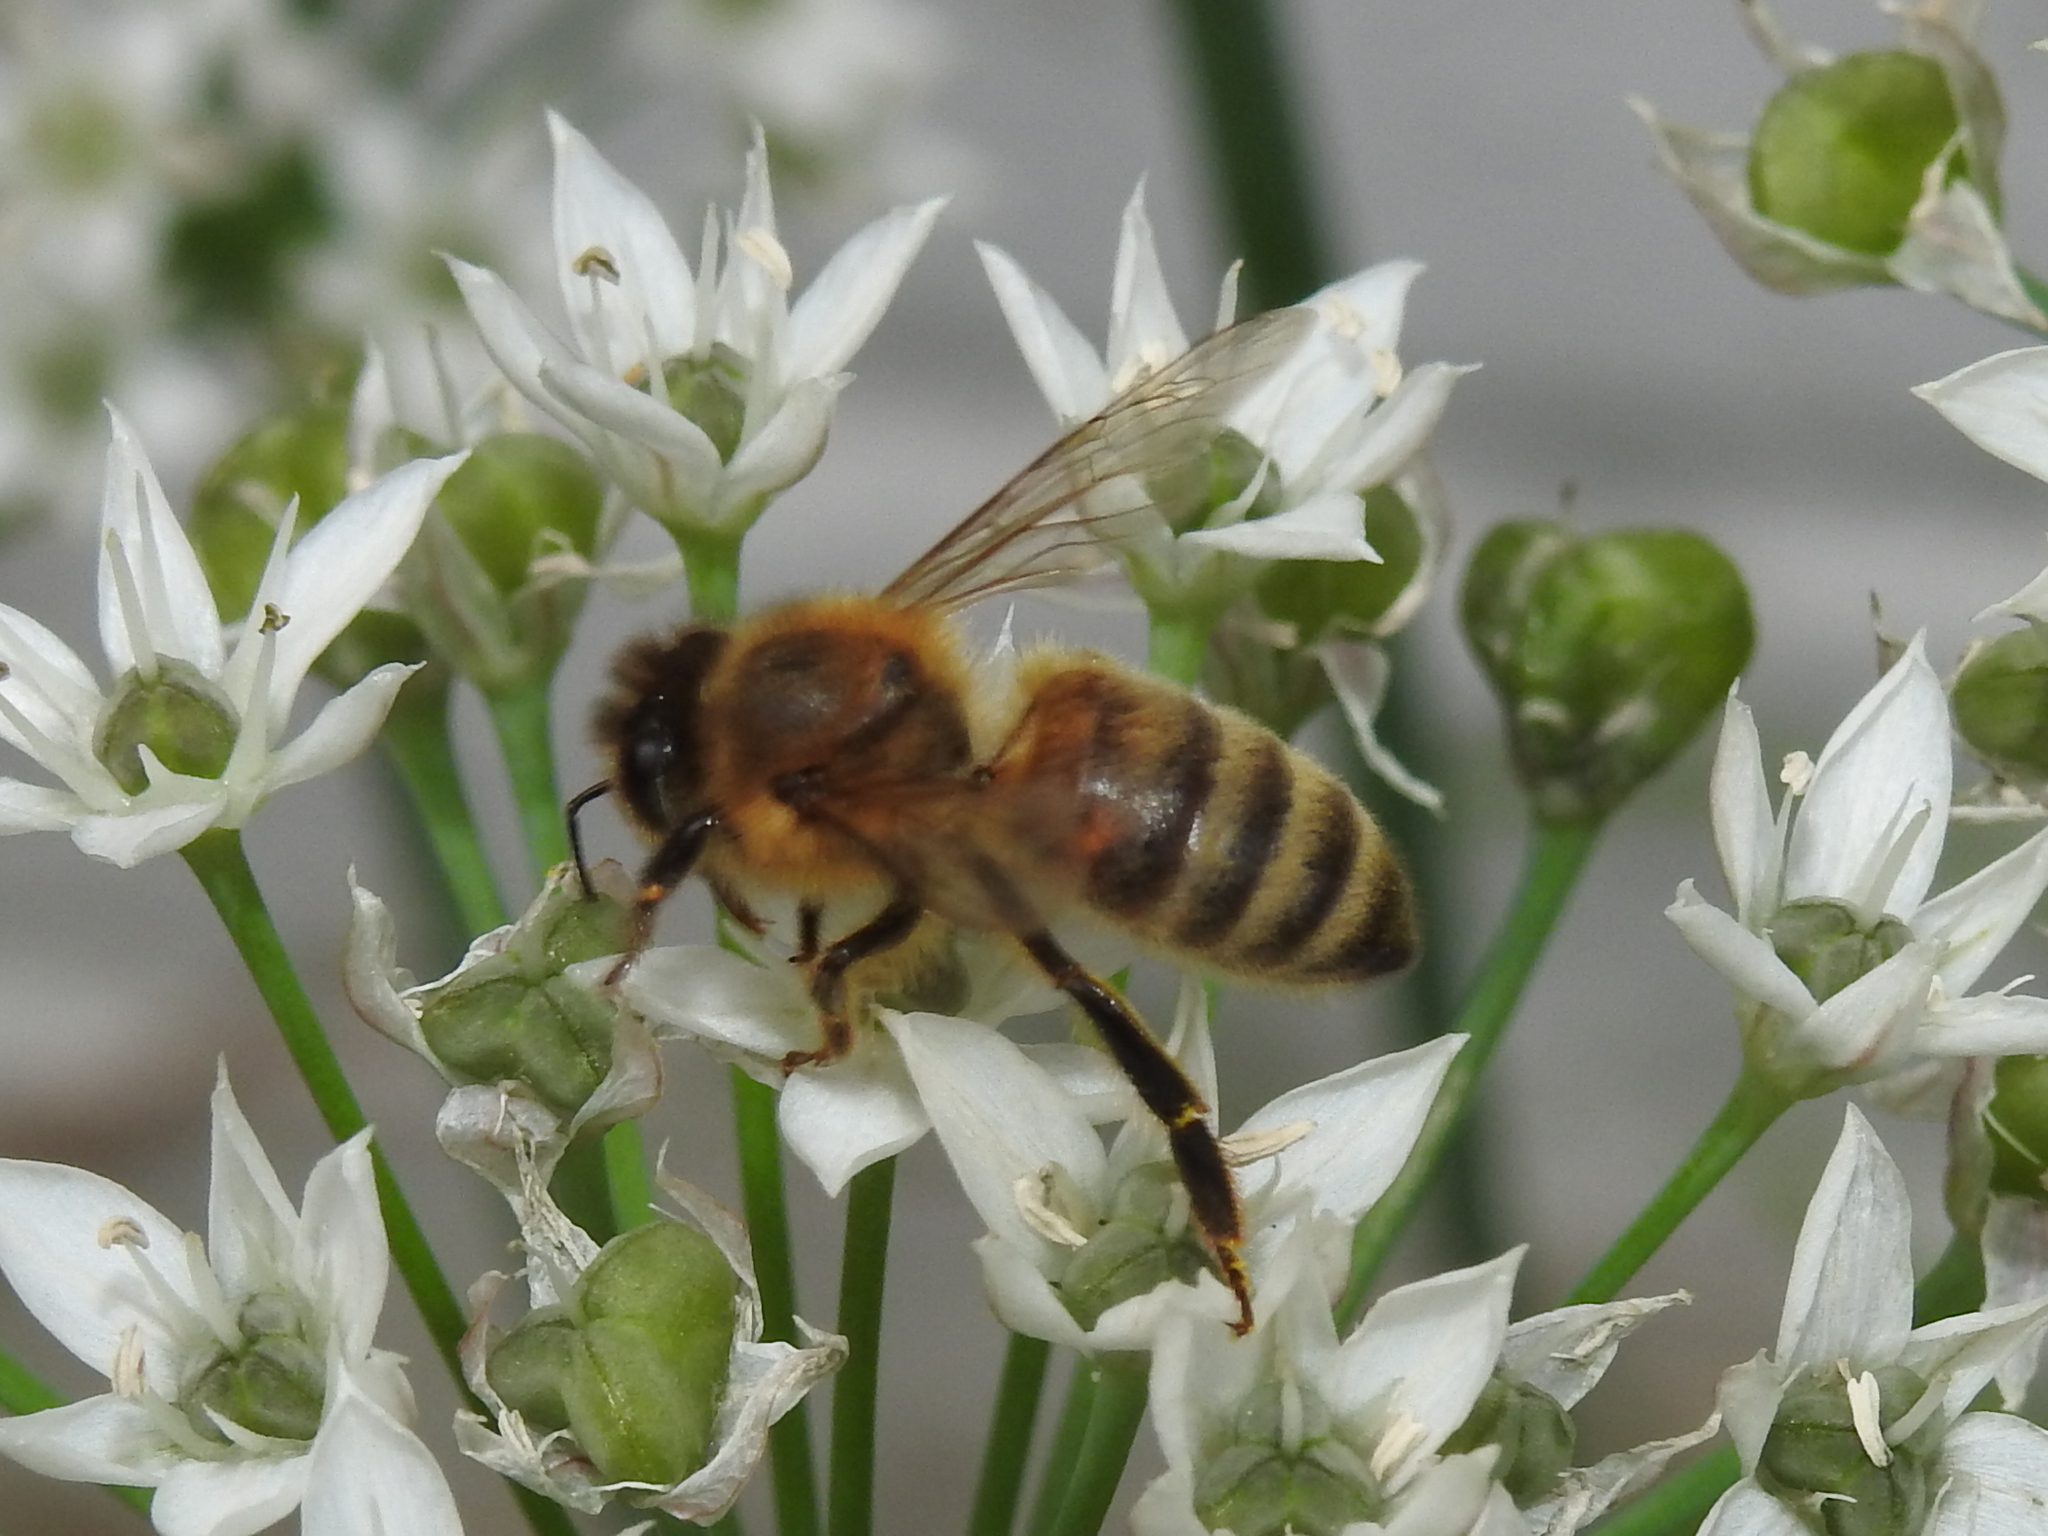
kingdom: Animalia
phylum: Arthropoda
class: Insecta
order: Hymenoptera
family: Apidae
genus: Apis
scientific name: Apis mellifera
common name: Honey bee
